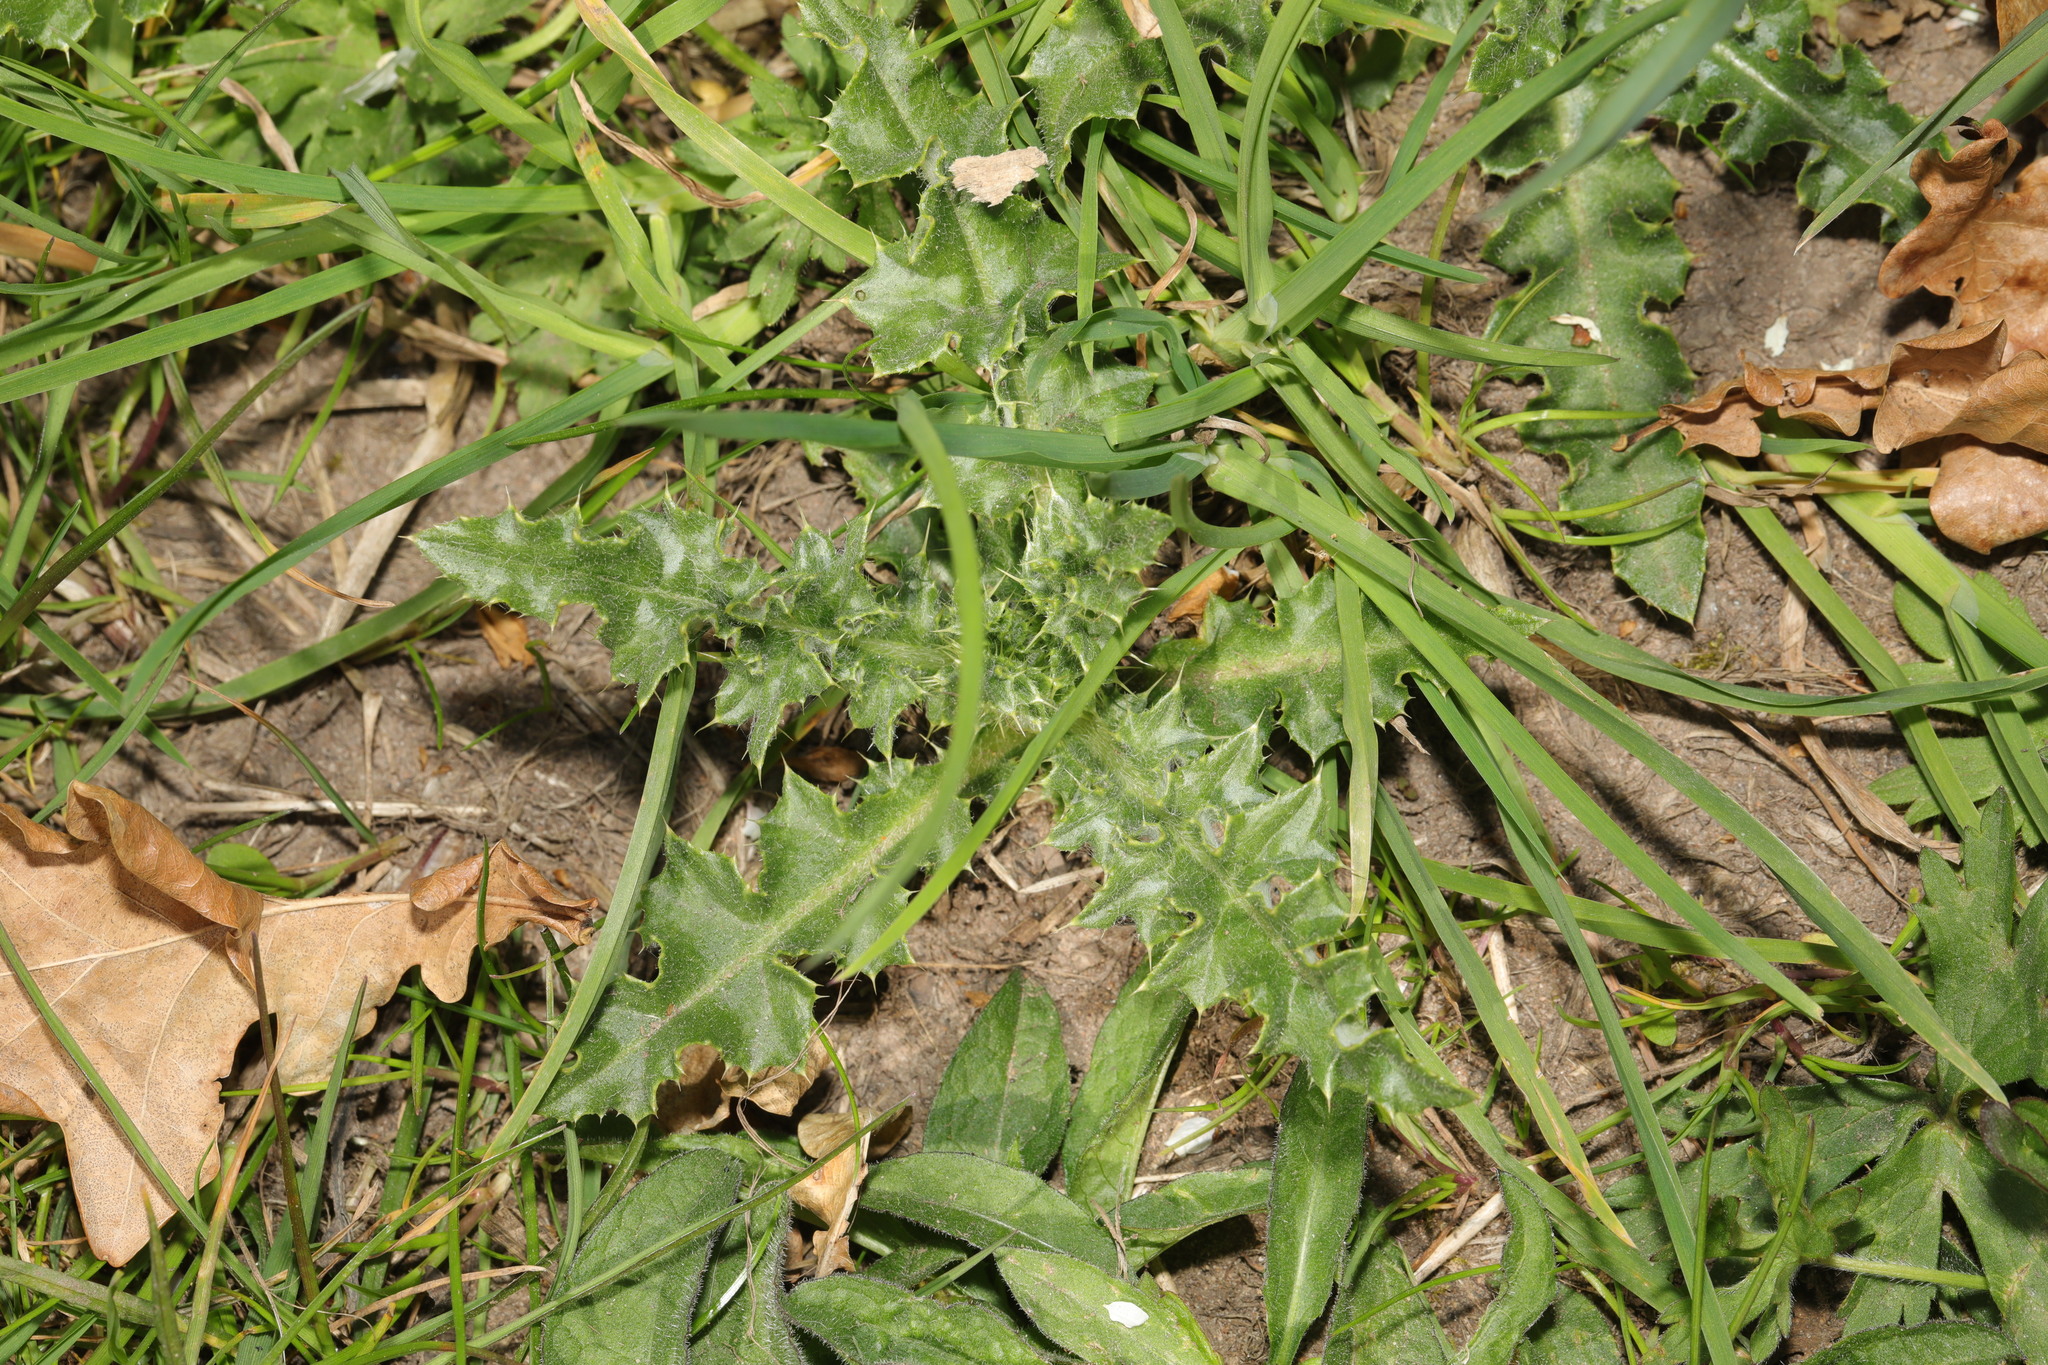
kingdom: Plantae
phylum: Tracheophyta
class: Magnoliopsida
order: Asterales
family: Asteraceae
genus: Cirsium
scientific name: Cirsium arvense
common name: Creeping thistle
